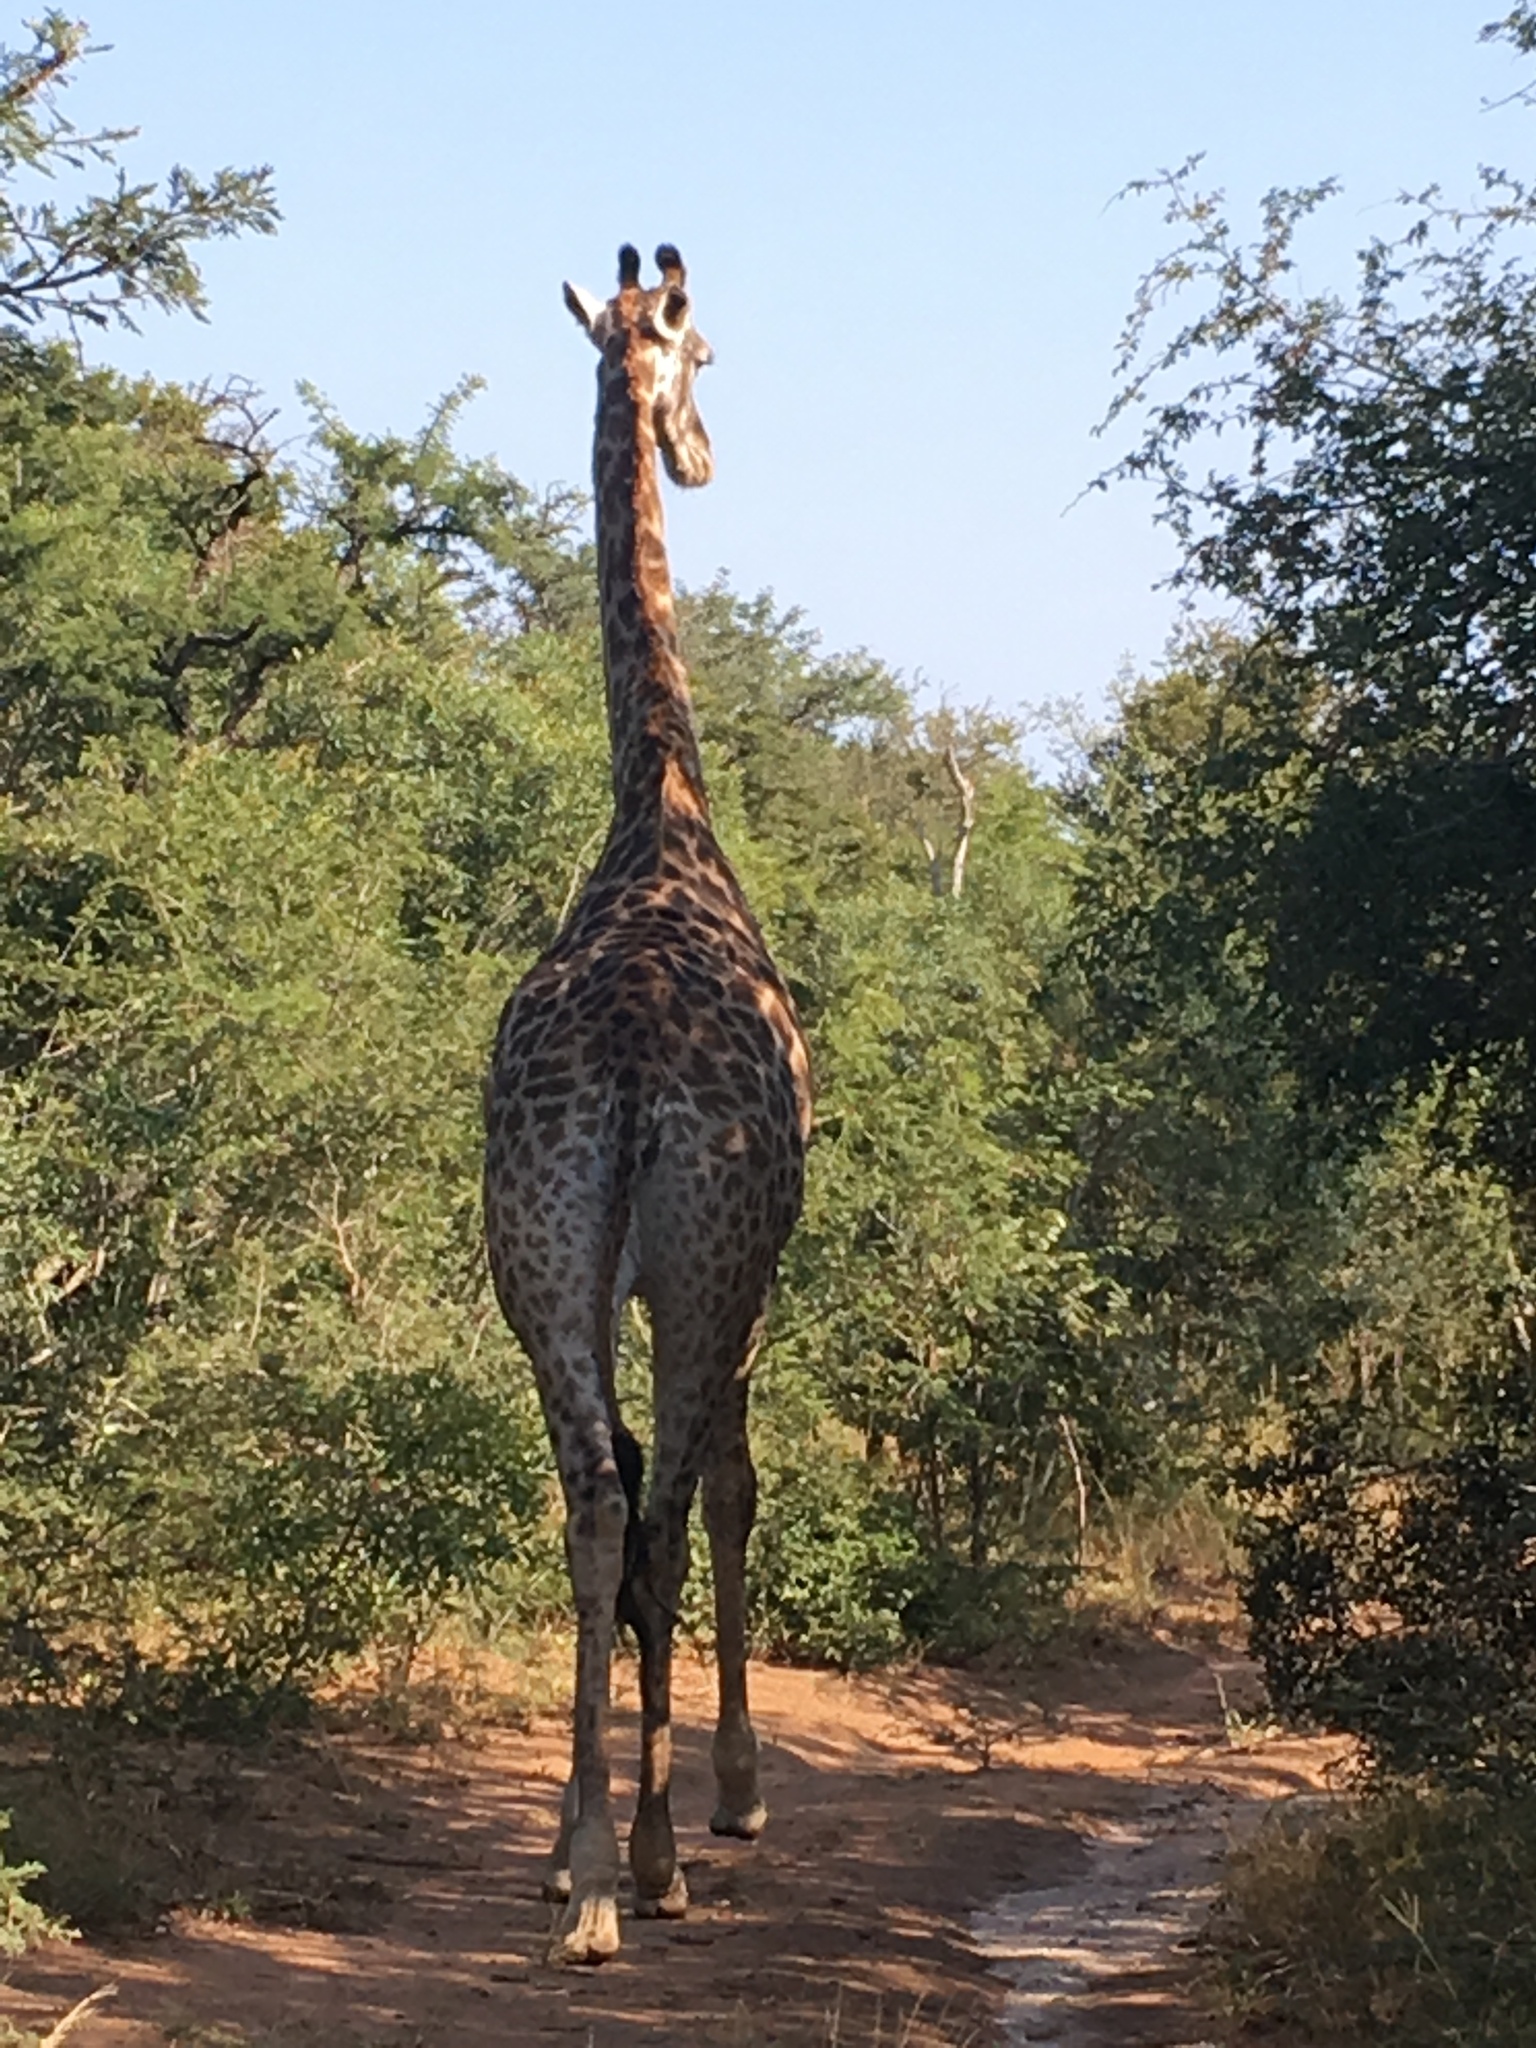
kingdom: Animalia
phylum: Chordata
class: Mammalia
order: Artiodactyla
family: Giraffidae
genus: Giraffa
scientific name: Giraffa giraffa
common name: Southern giraffe
